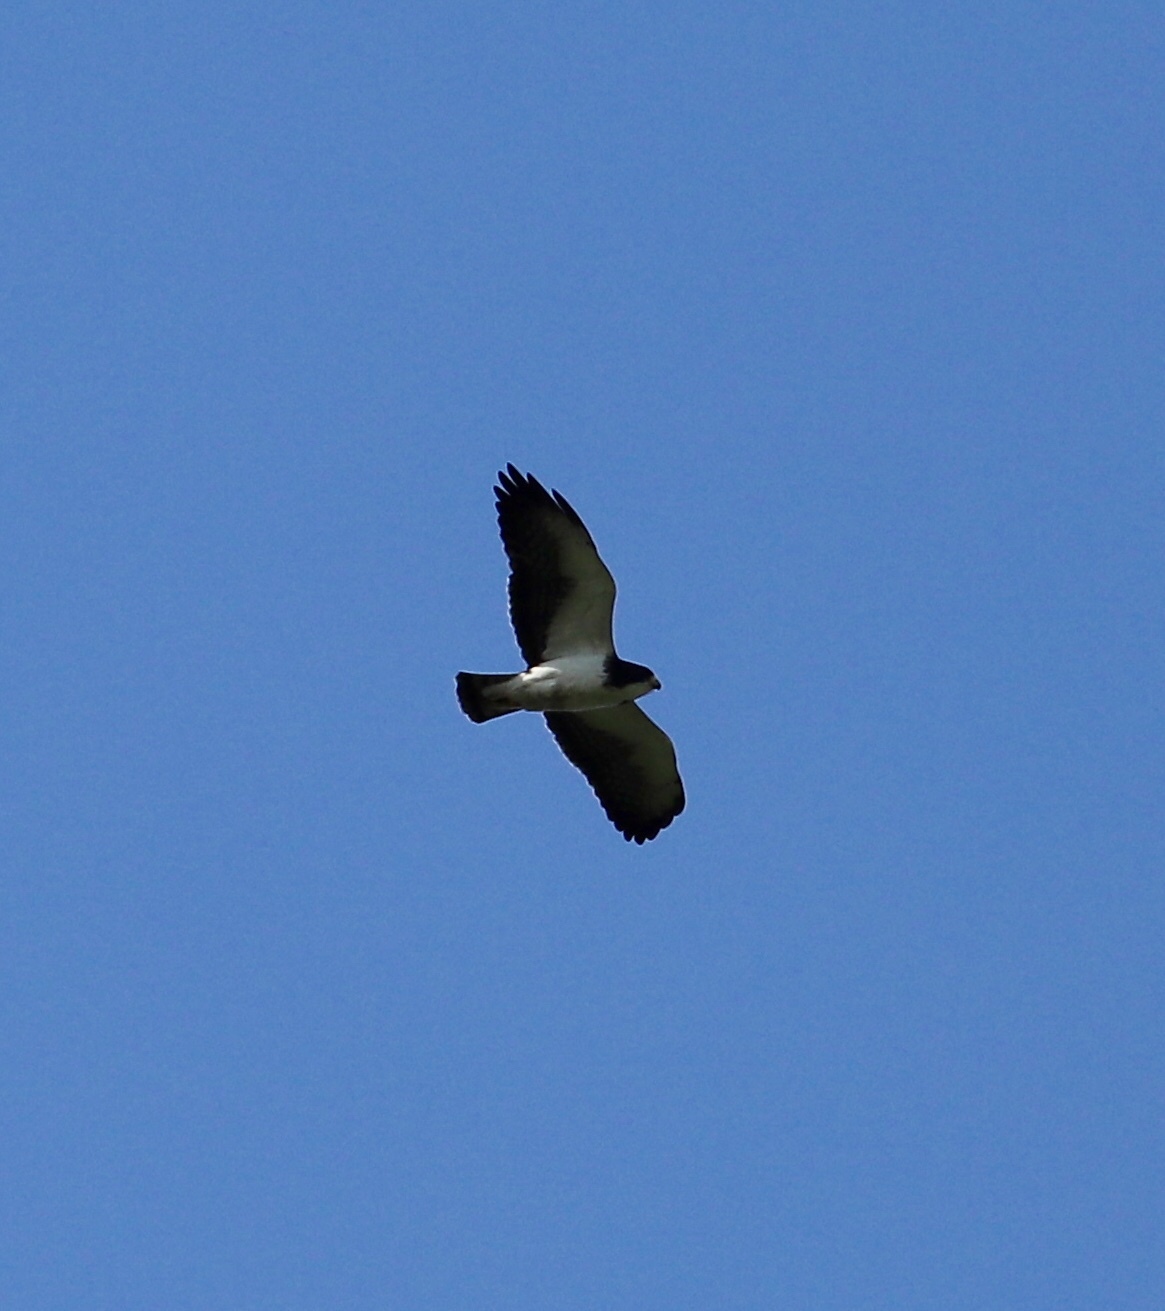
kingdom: Animalia
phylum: Chordata
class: Aves
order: Accipitriformes
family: Accipitridae
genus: Buteo
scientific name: Buteo brachyurus
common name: Short-tailed hawk
